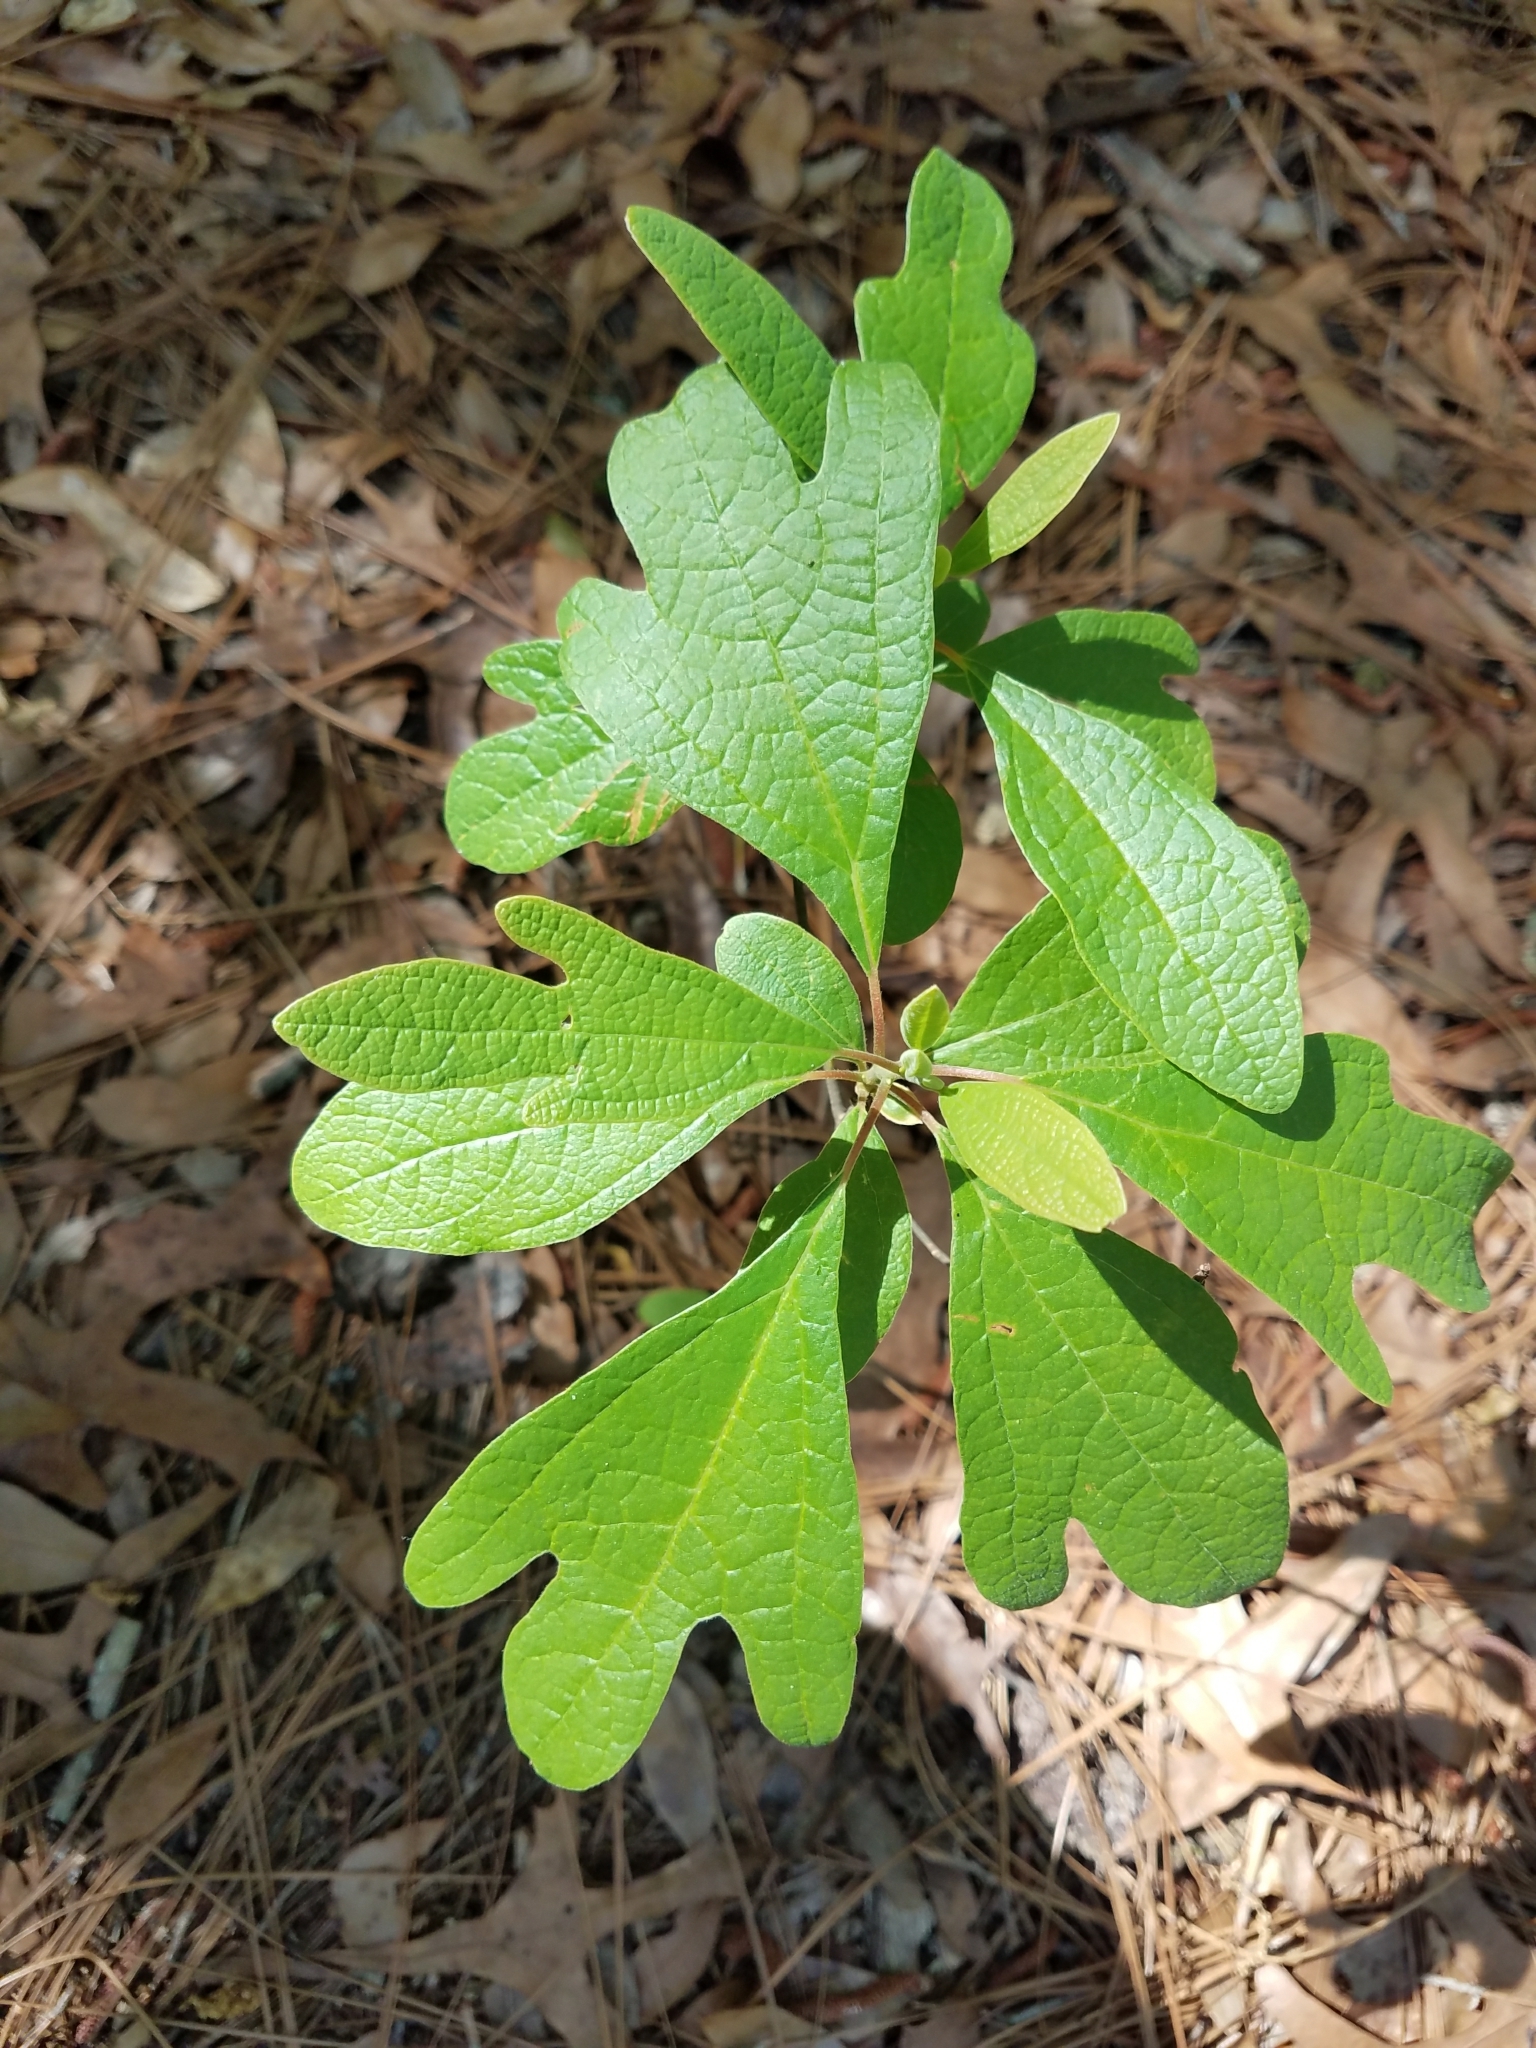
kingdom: Plantae
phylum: Tracheophyta
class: Magnoliopsida
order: Laurales
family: Lauraceae
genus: Sassafras
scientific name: Sassafras albidum
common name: Sassafras
